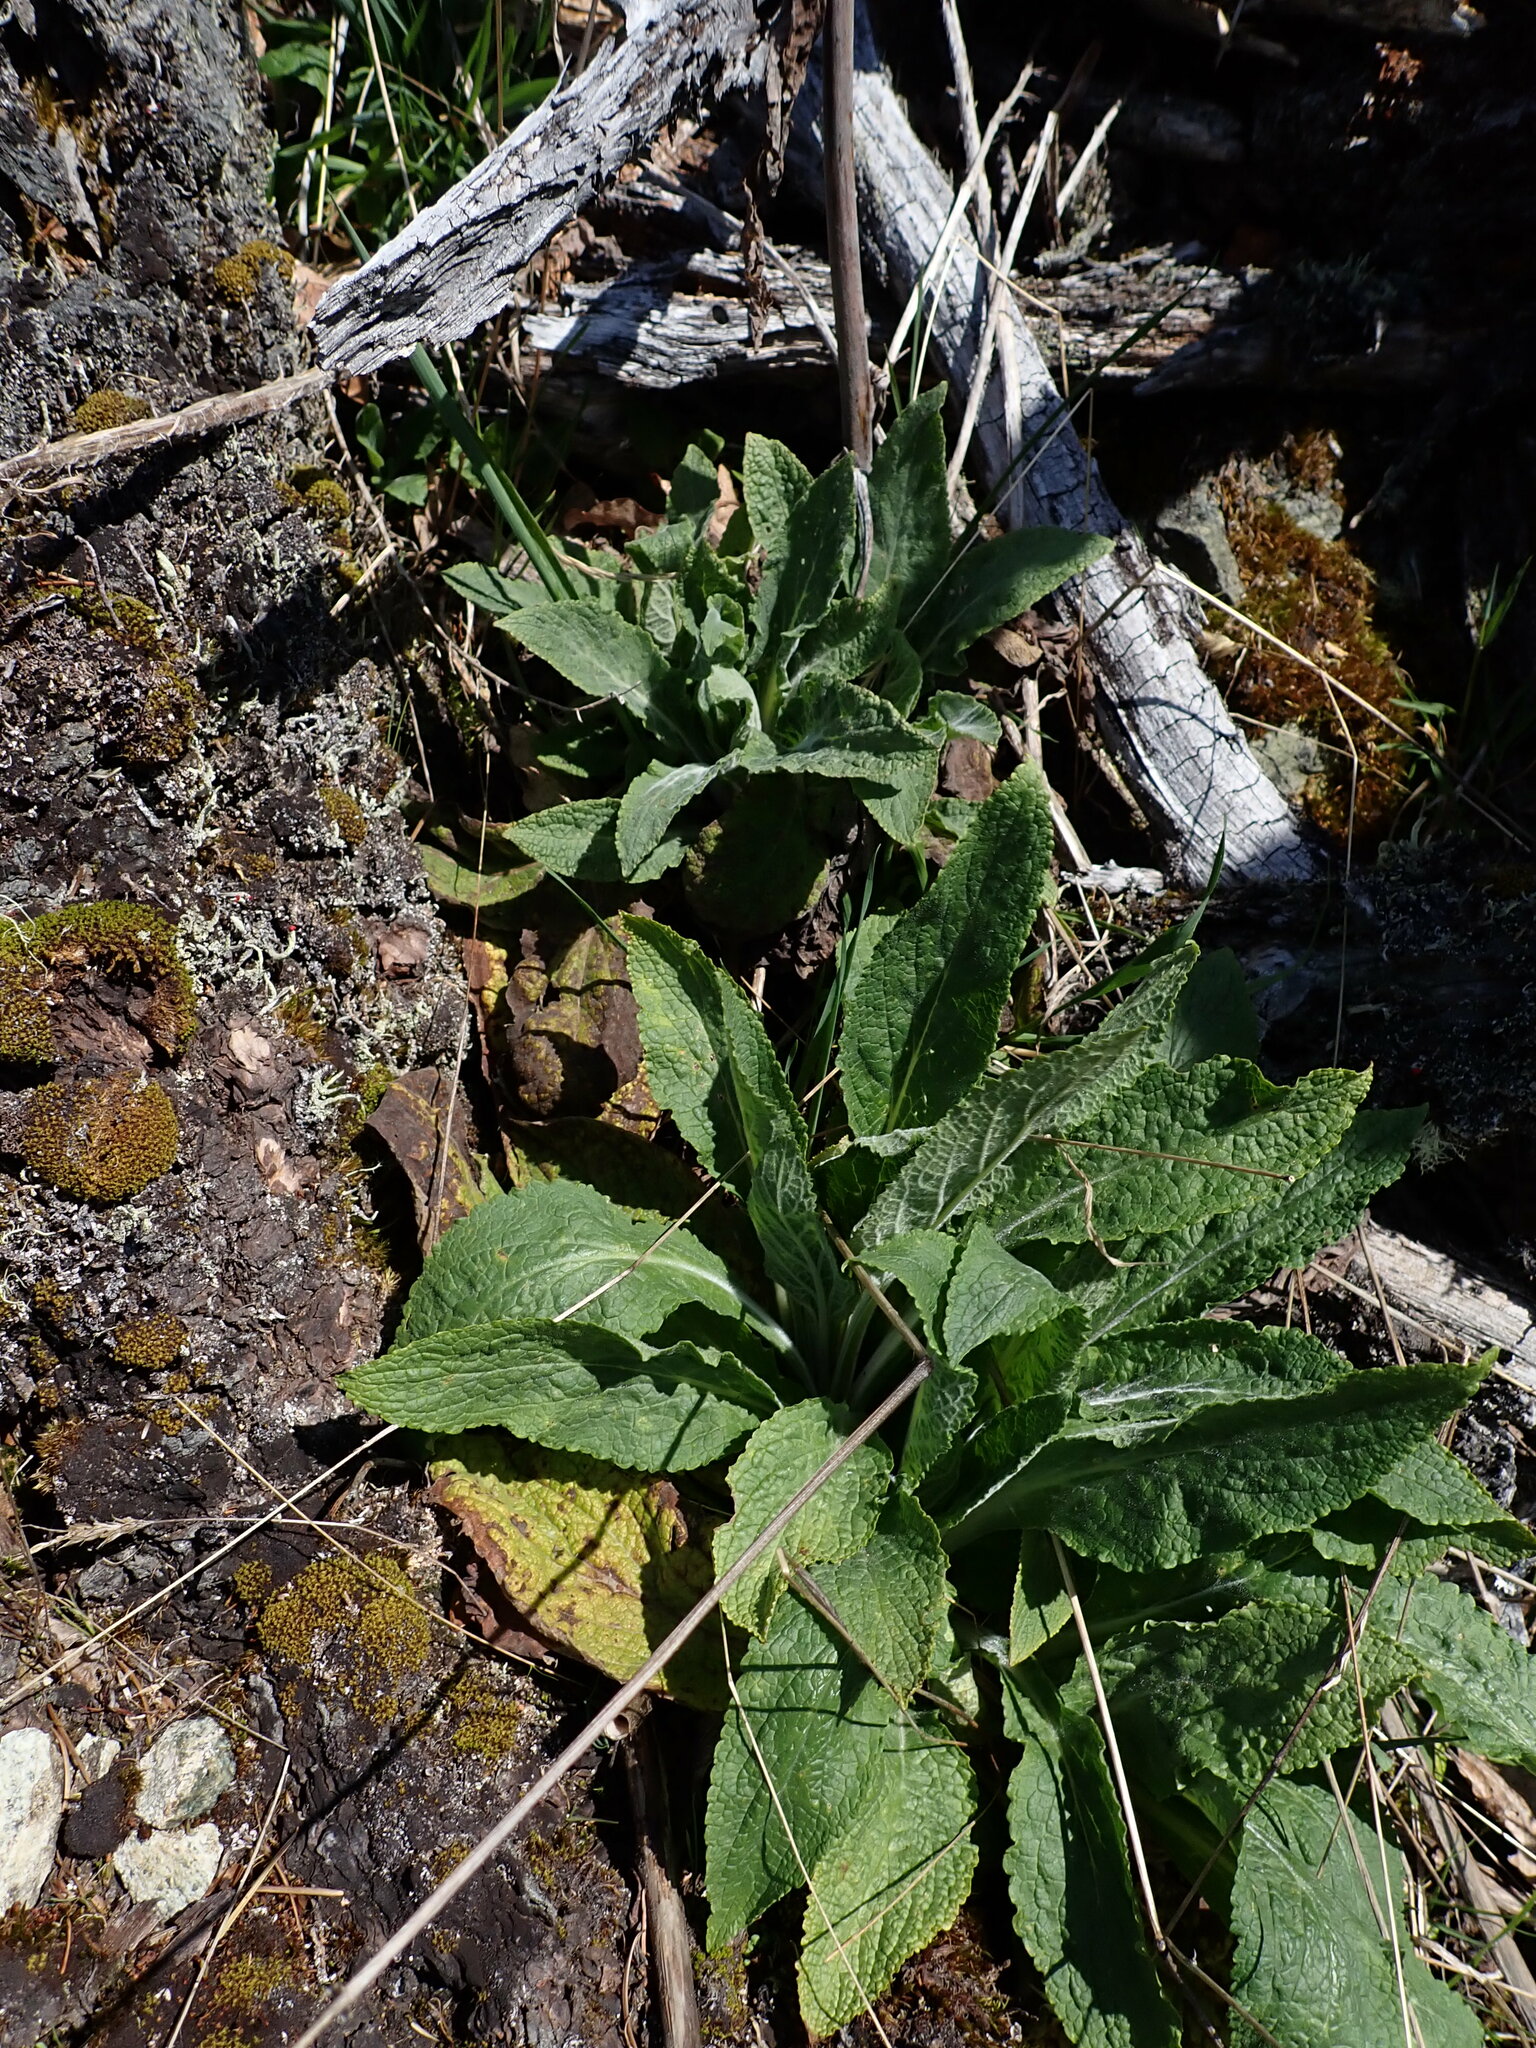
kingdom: Plantae
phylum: Tracheophyta
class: Magnoliopsida
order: Lamiales
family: Plantaginaceae
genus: Digitalis
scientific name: Digitalis purpurea
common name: Foxglove
